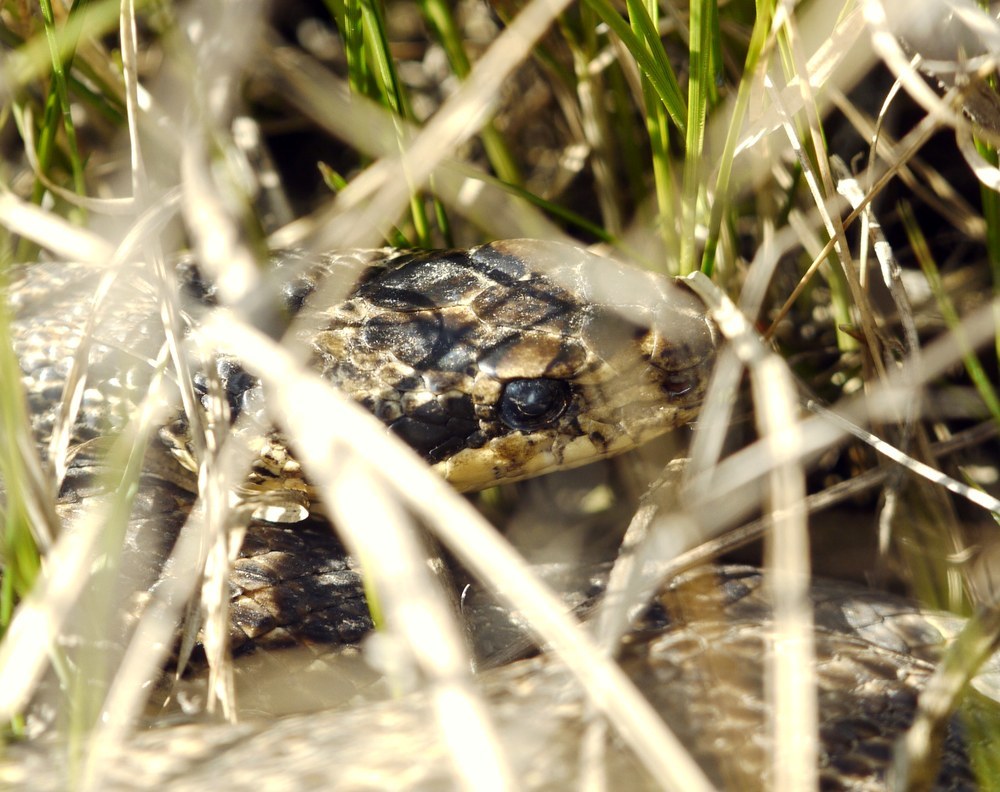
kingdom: Animalia
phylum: Chordata
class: Squamata
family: Colubridae
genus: Elaphe
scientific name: Elaphe sauromates
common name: Eastern four-lined ratsnake
